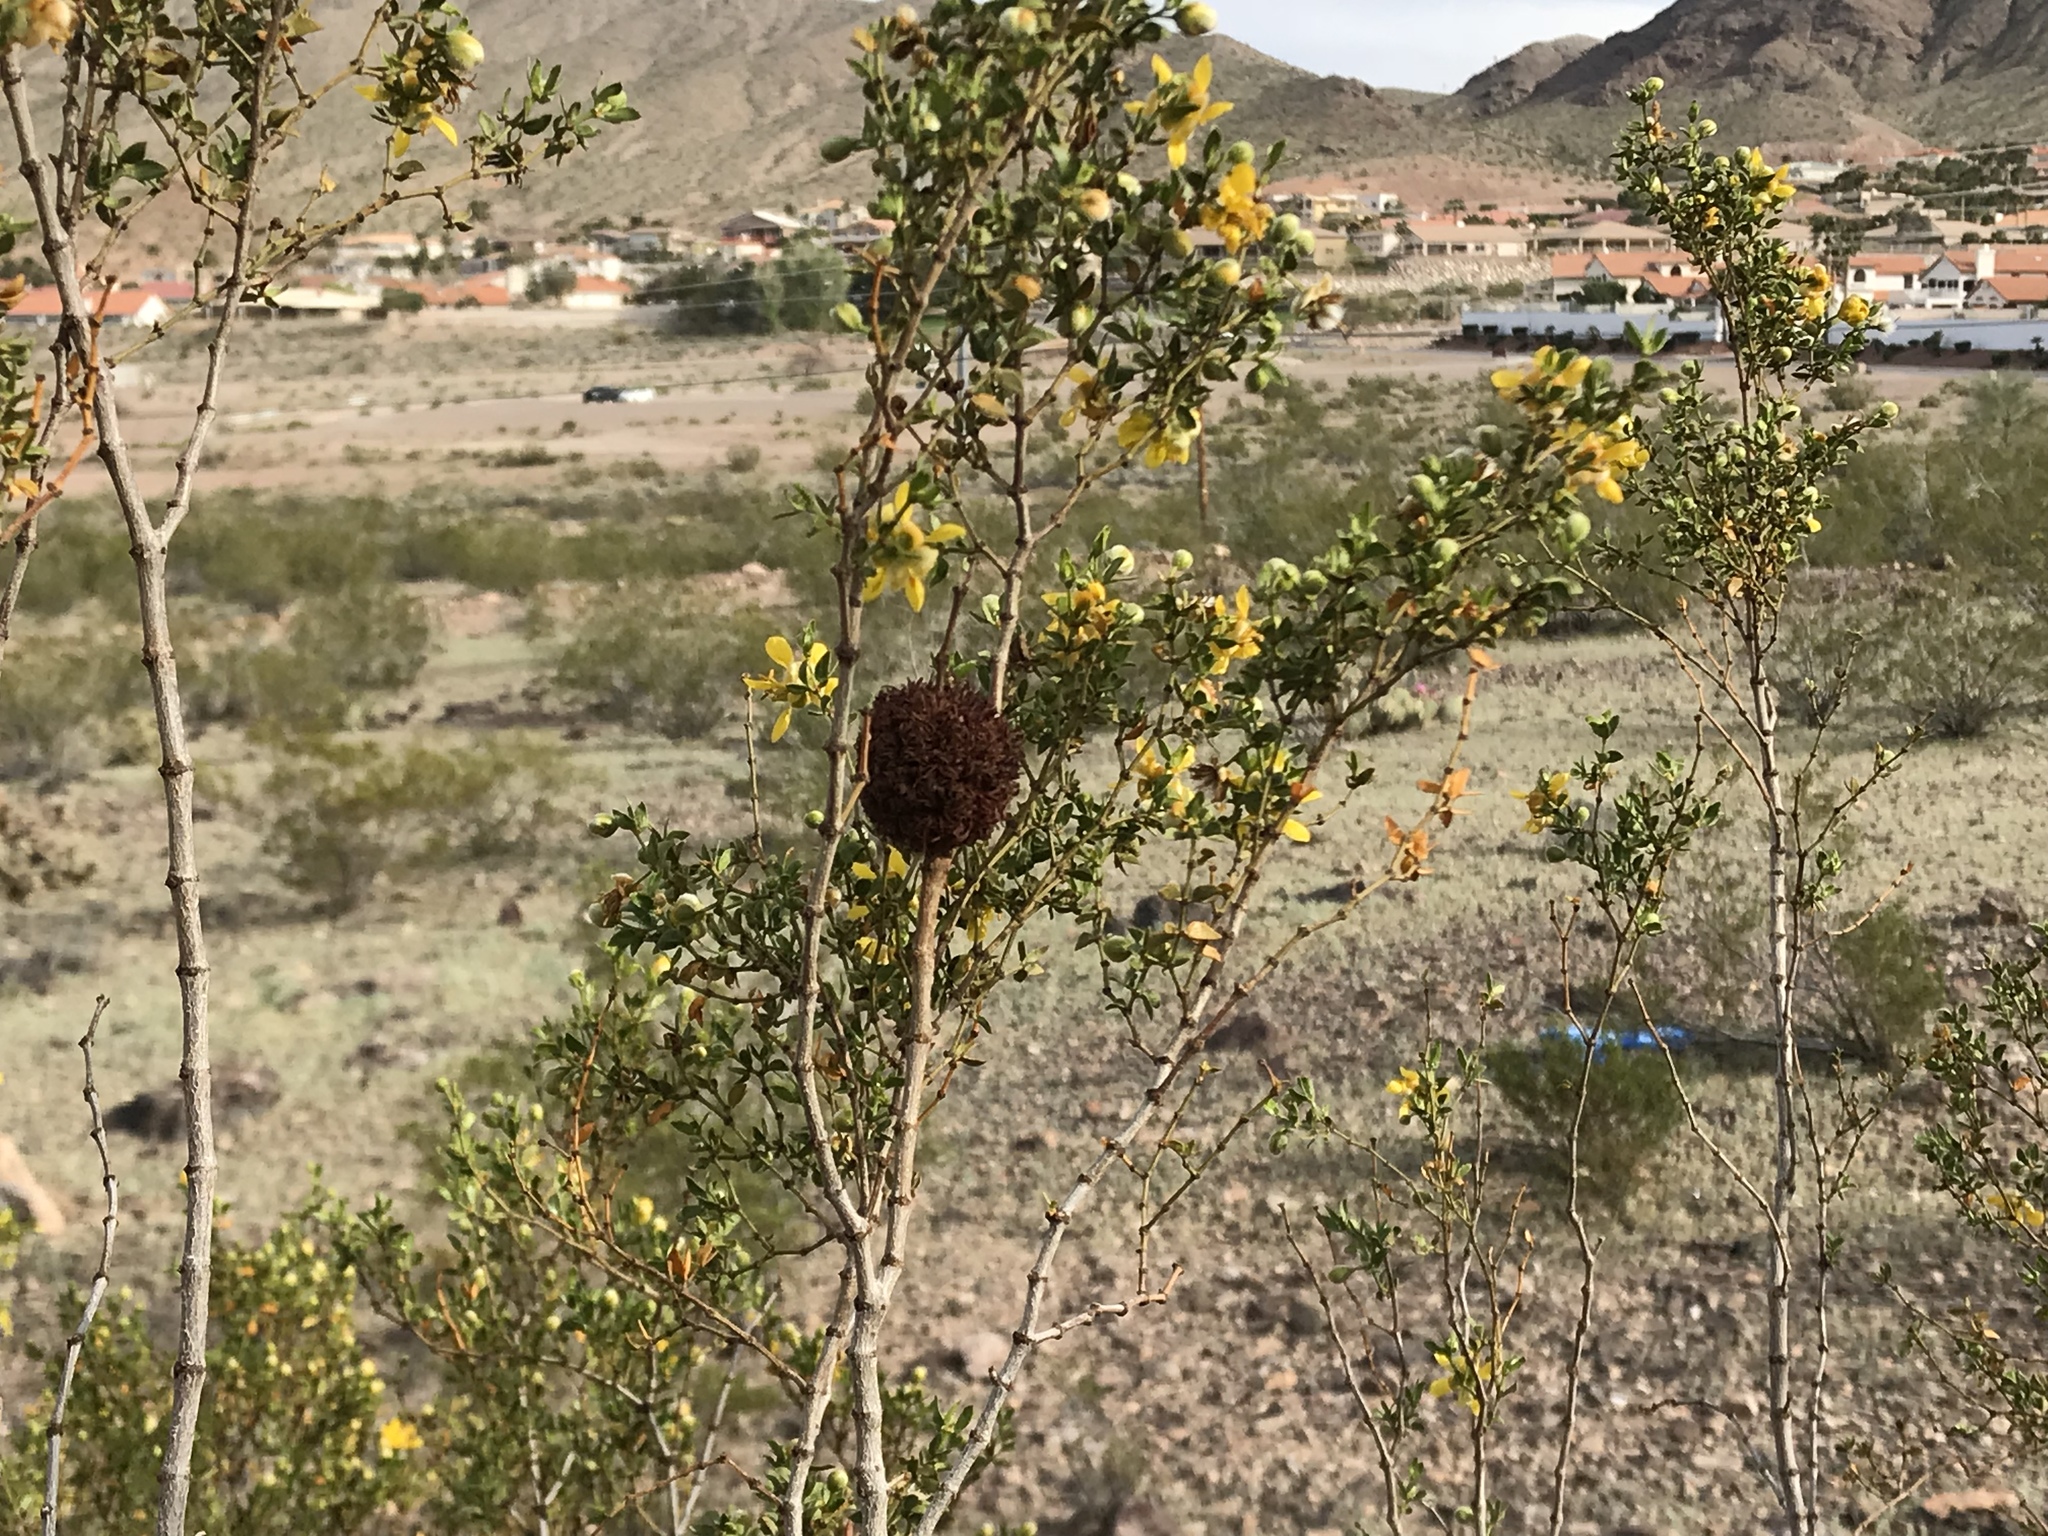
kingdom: Animalia
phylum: Arthropoda
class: Insecta
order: Diptera
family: Cecidomyiidae
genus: Asphondylia
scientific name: Asphondylia auripila
